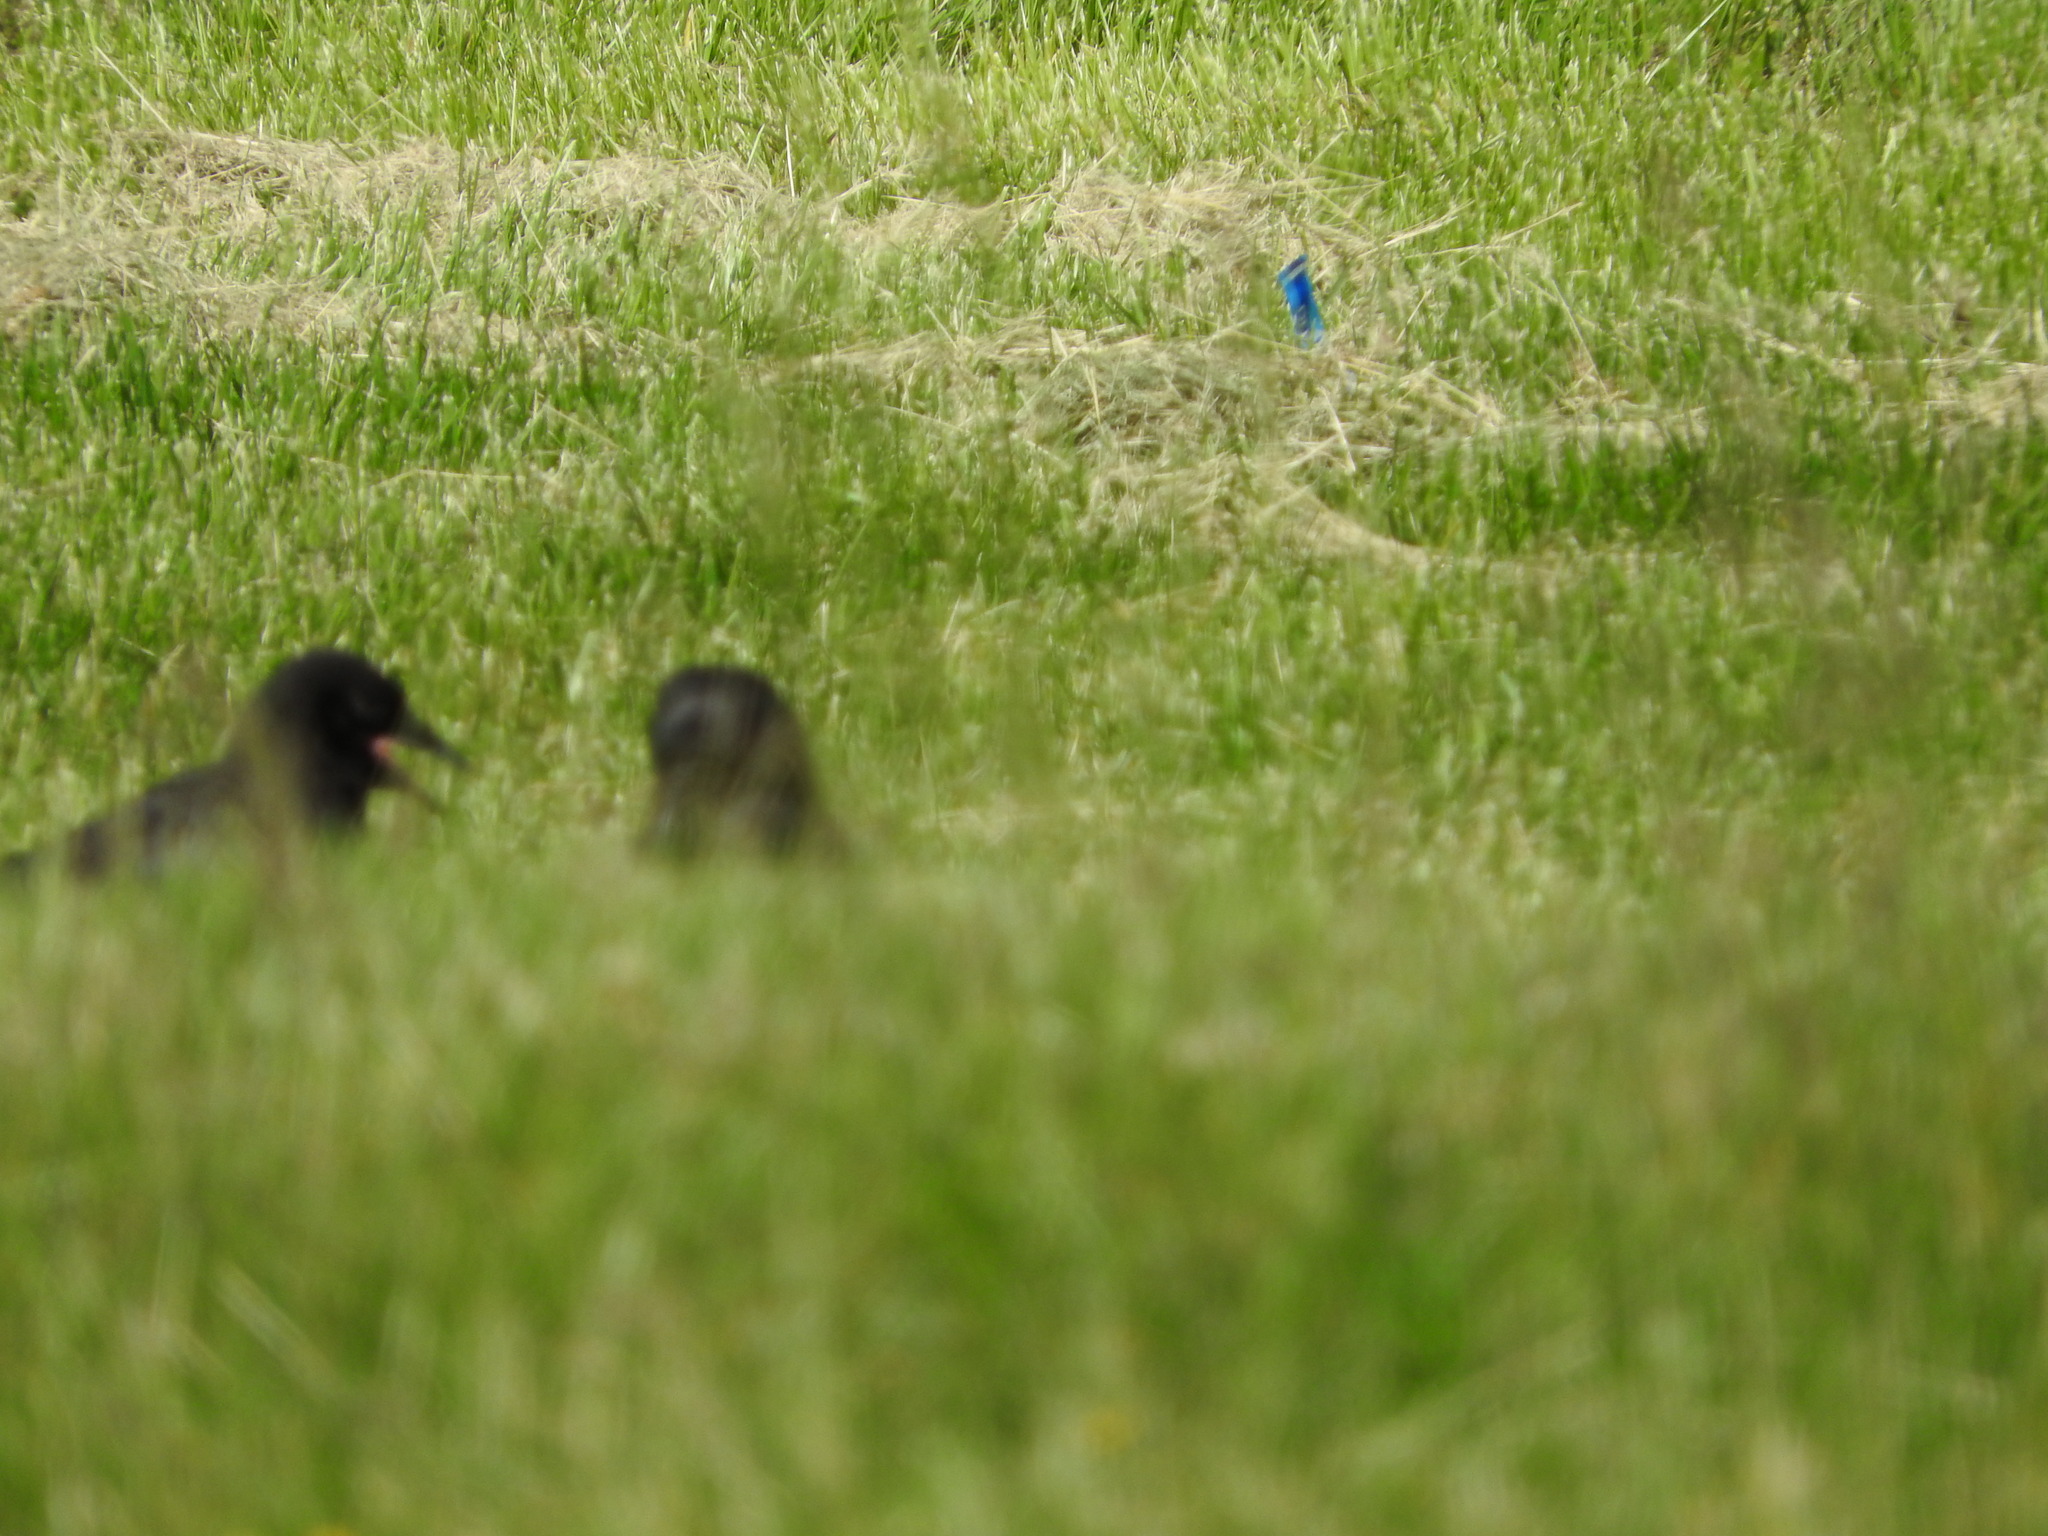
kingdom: Animalia
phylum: Chordata
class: Aves
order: Passeriformes
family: Corvidae
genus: Corvus
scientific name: Corvus
